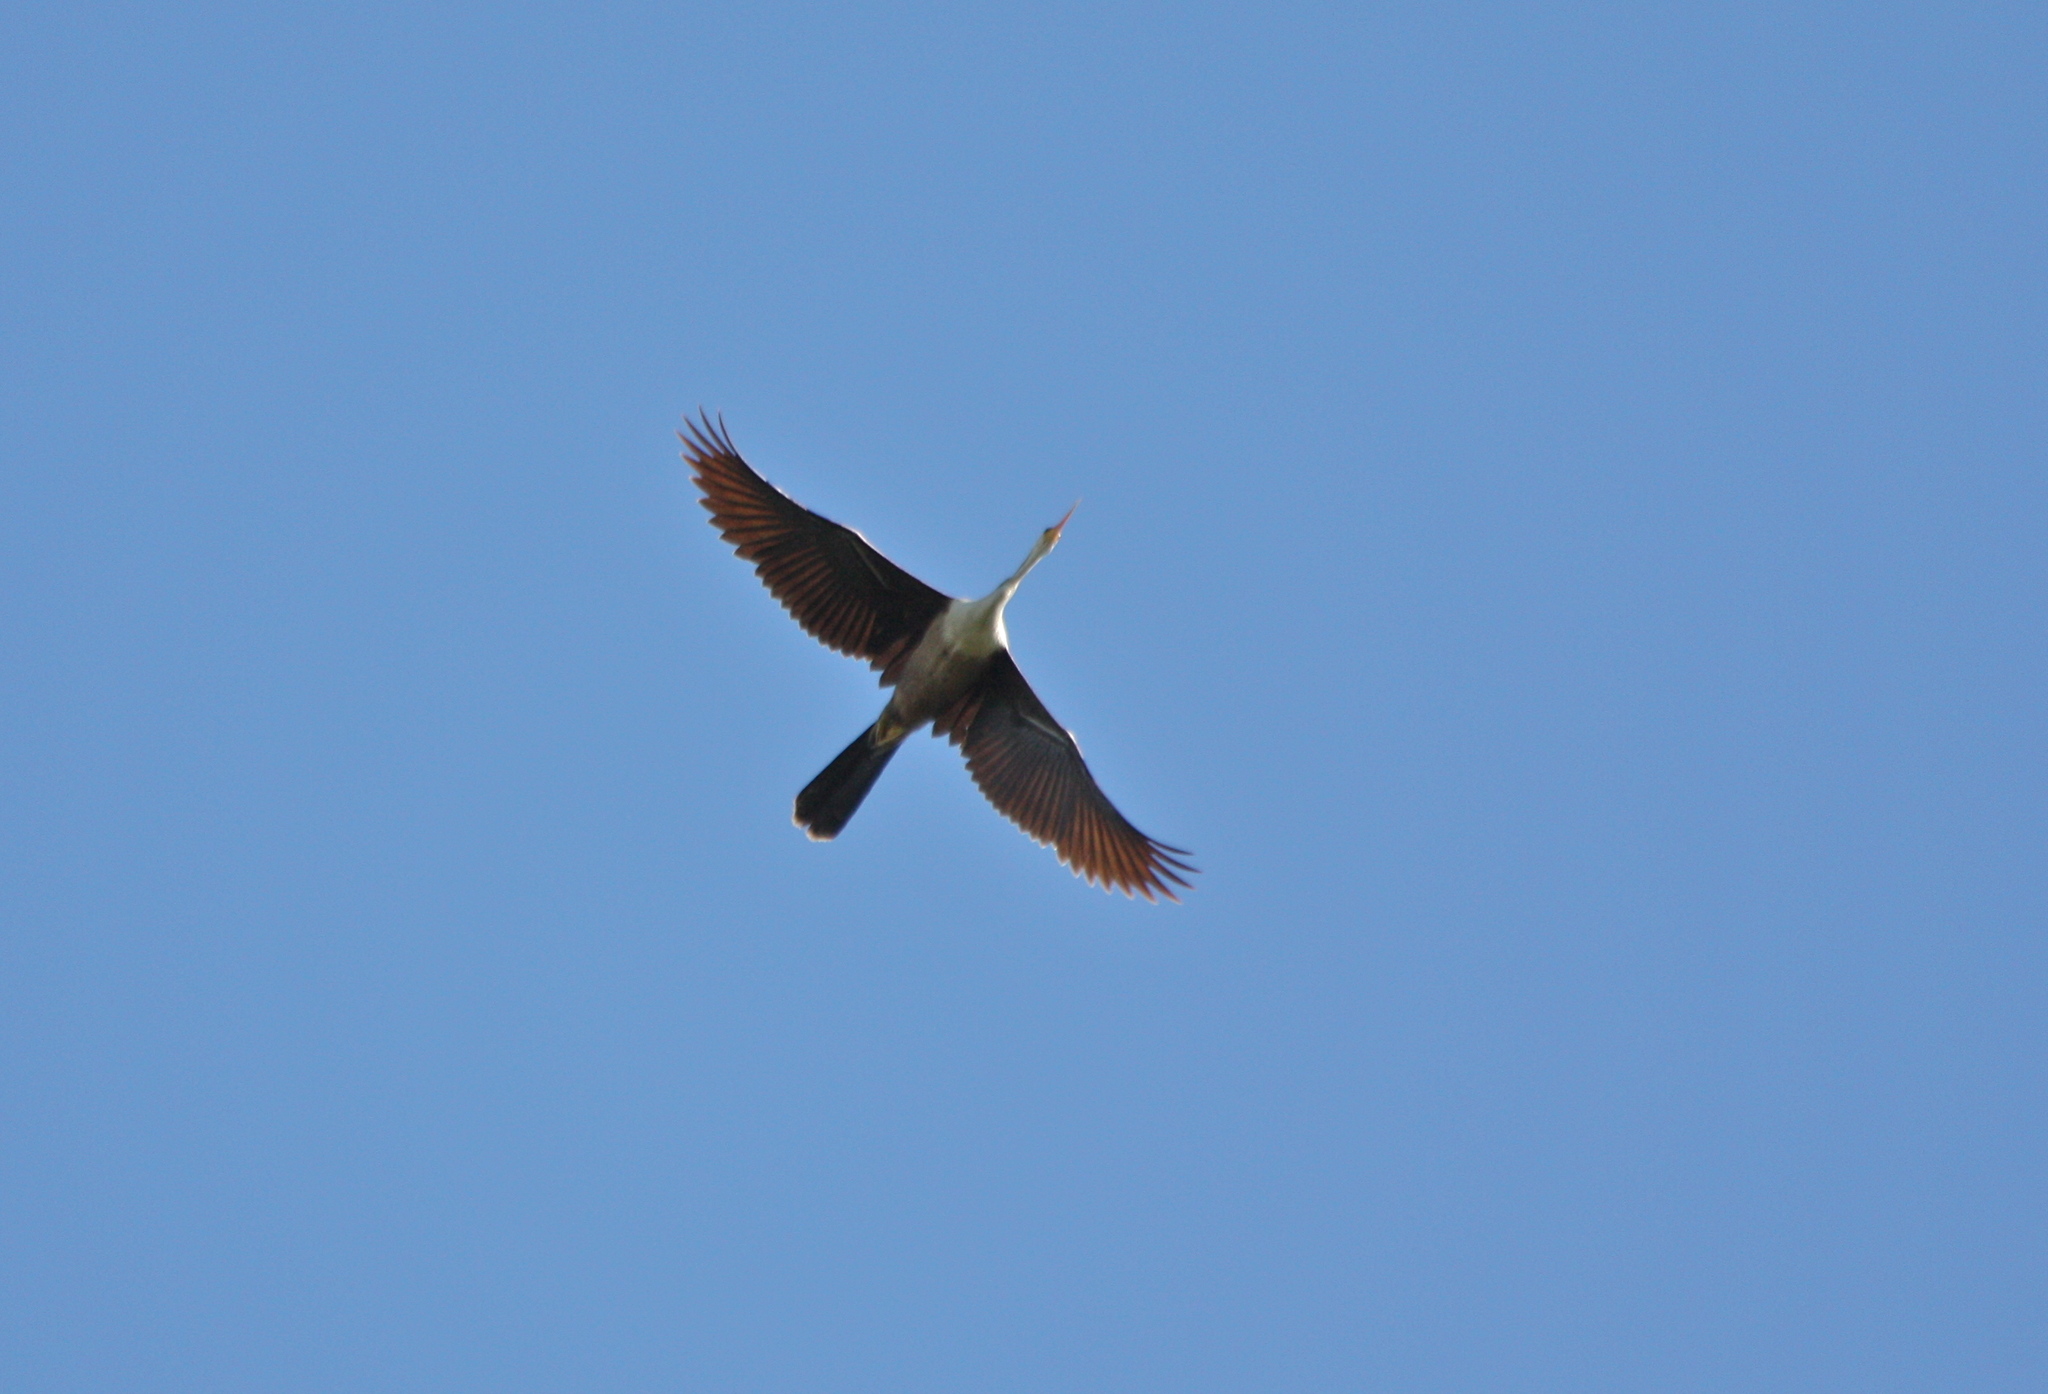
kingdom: Animalia
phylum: Chordata
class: Aves
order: Suliformes
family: Anhingidae
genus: Anhinga
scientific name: Anhinga anhinga
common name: Anhinga
